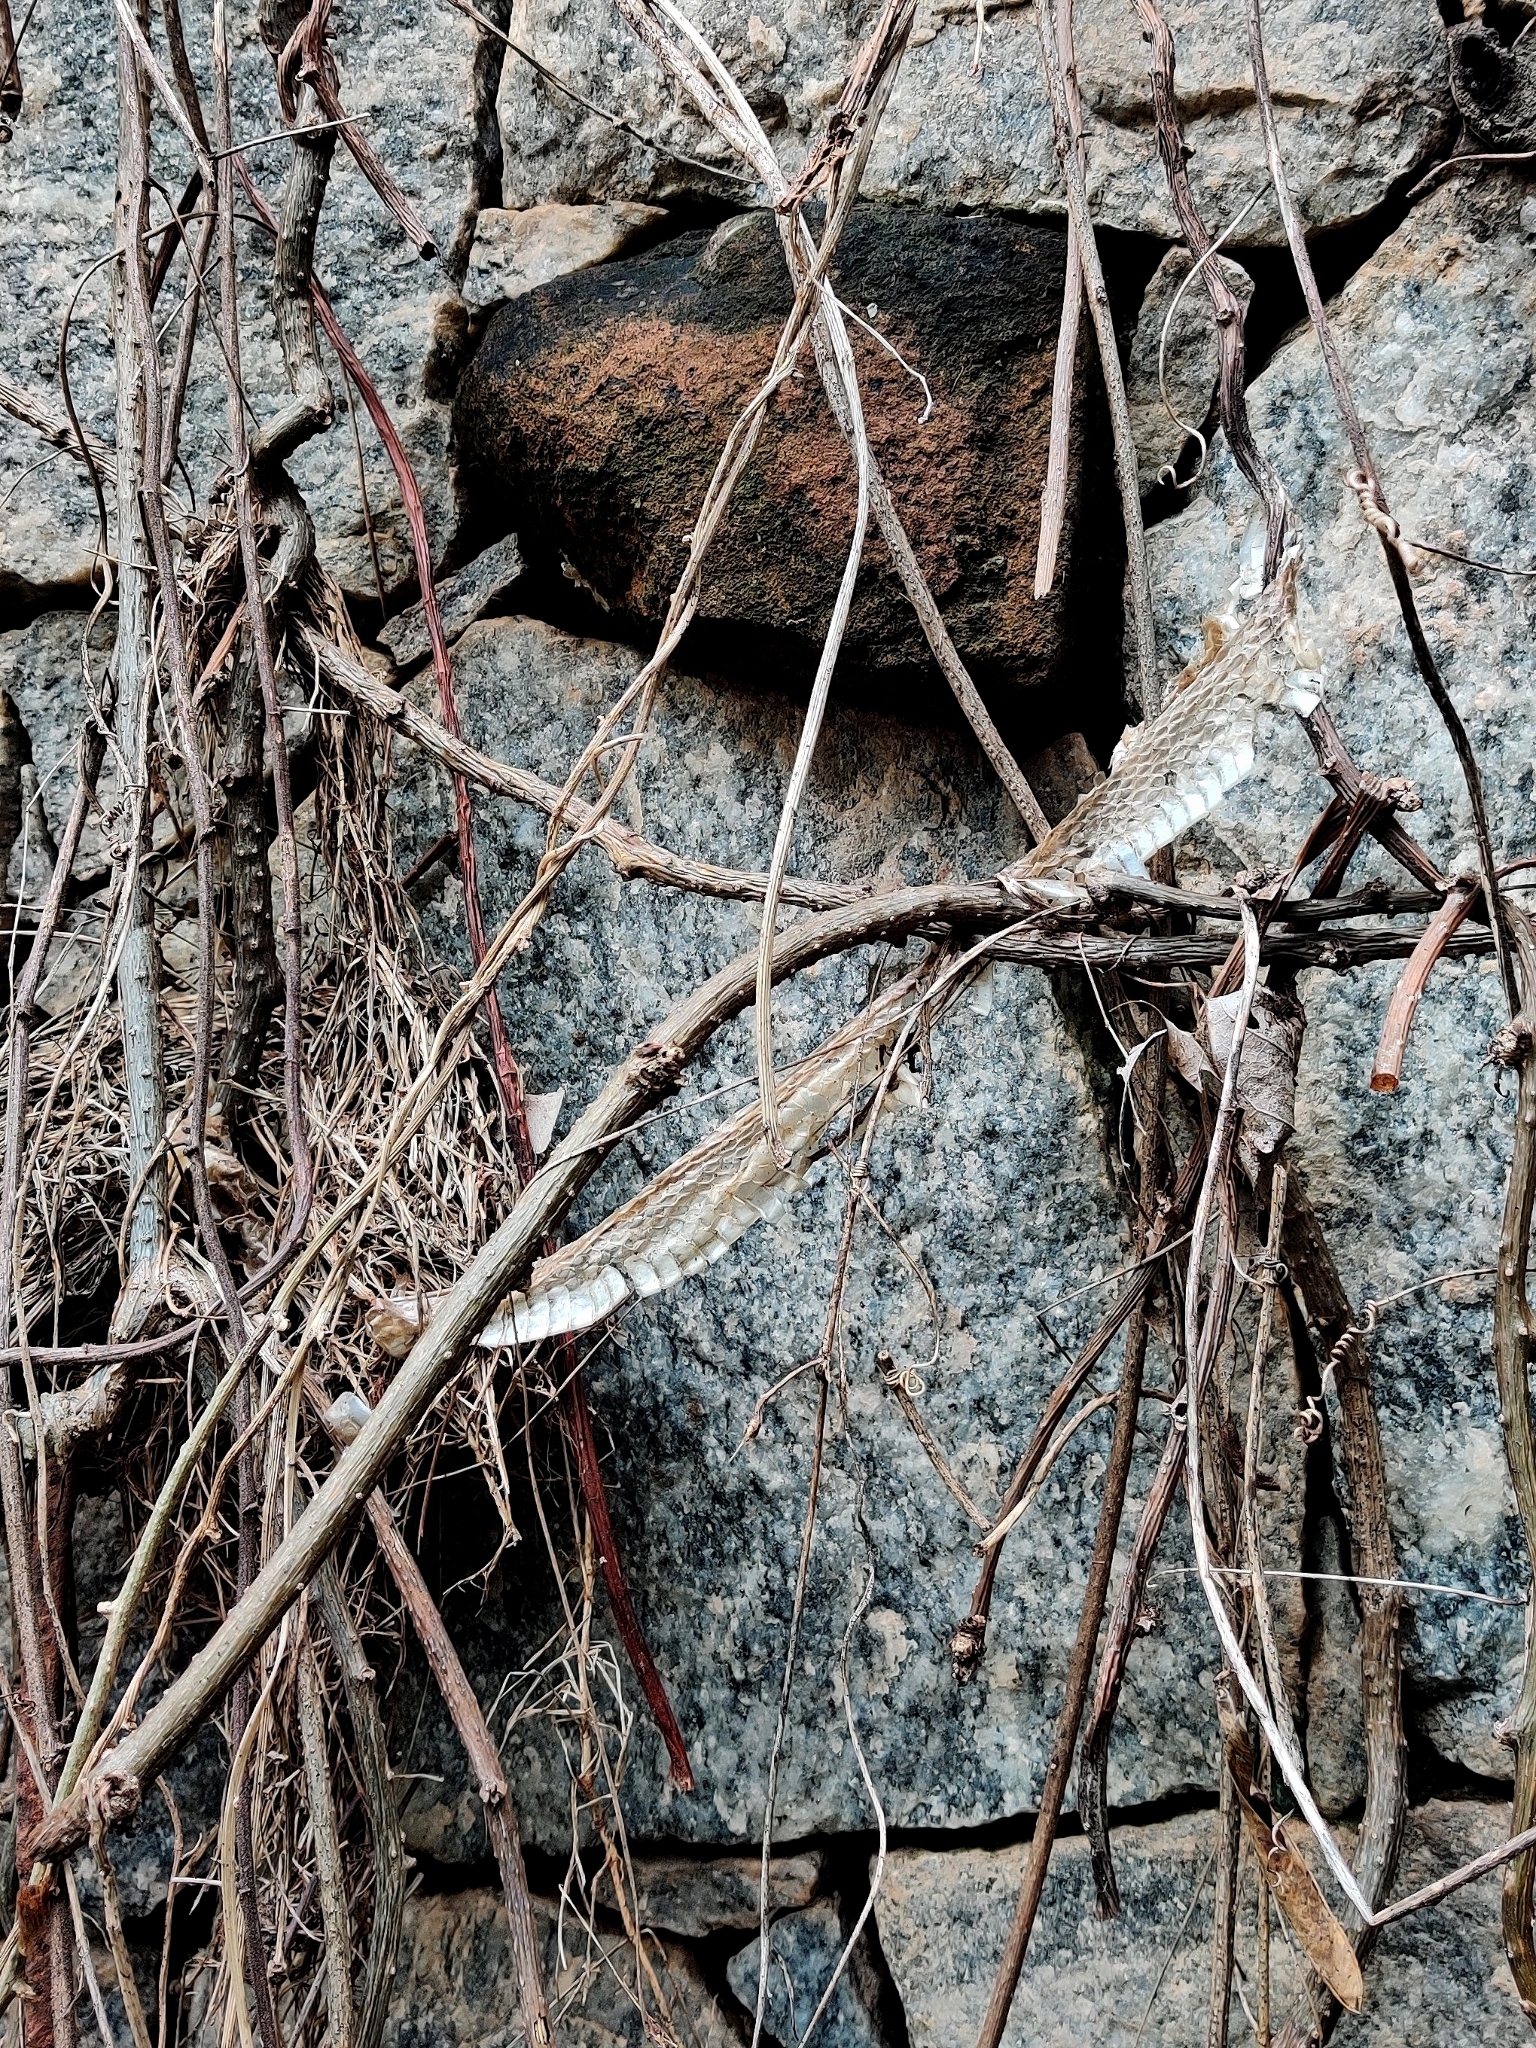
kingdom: Animalia
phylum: Chordata
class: Squamata
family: Colubridae
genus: Ptyas
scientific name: Ptyas mucosa
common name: Oriental ratsnake
